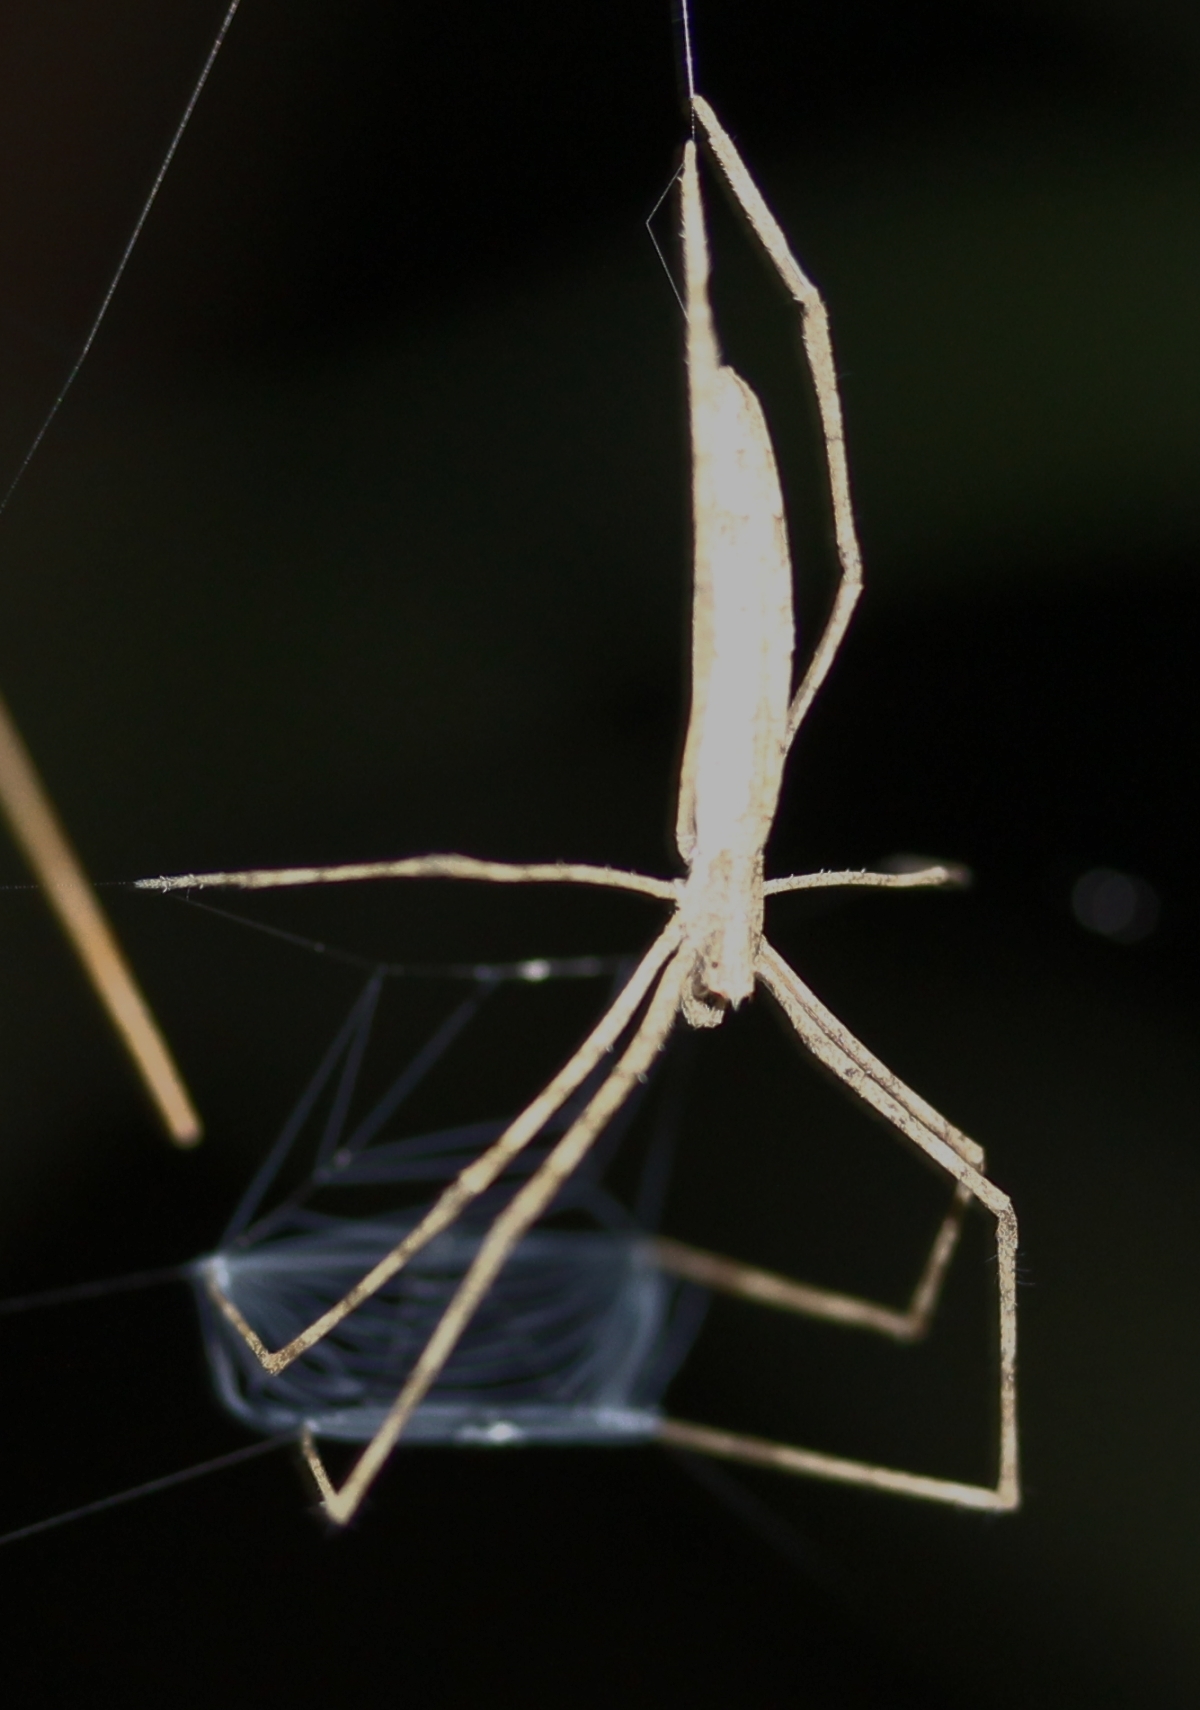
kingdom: Animalia
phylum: Arthropoda
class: Arachnida
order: Araneae
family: Deinopidae
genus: Deinopis
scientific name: Deinopis
